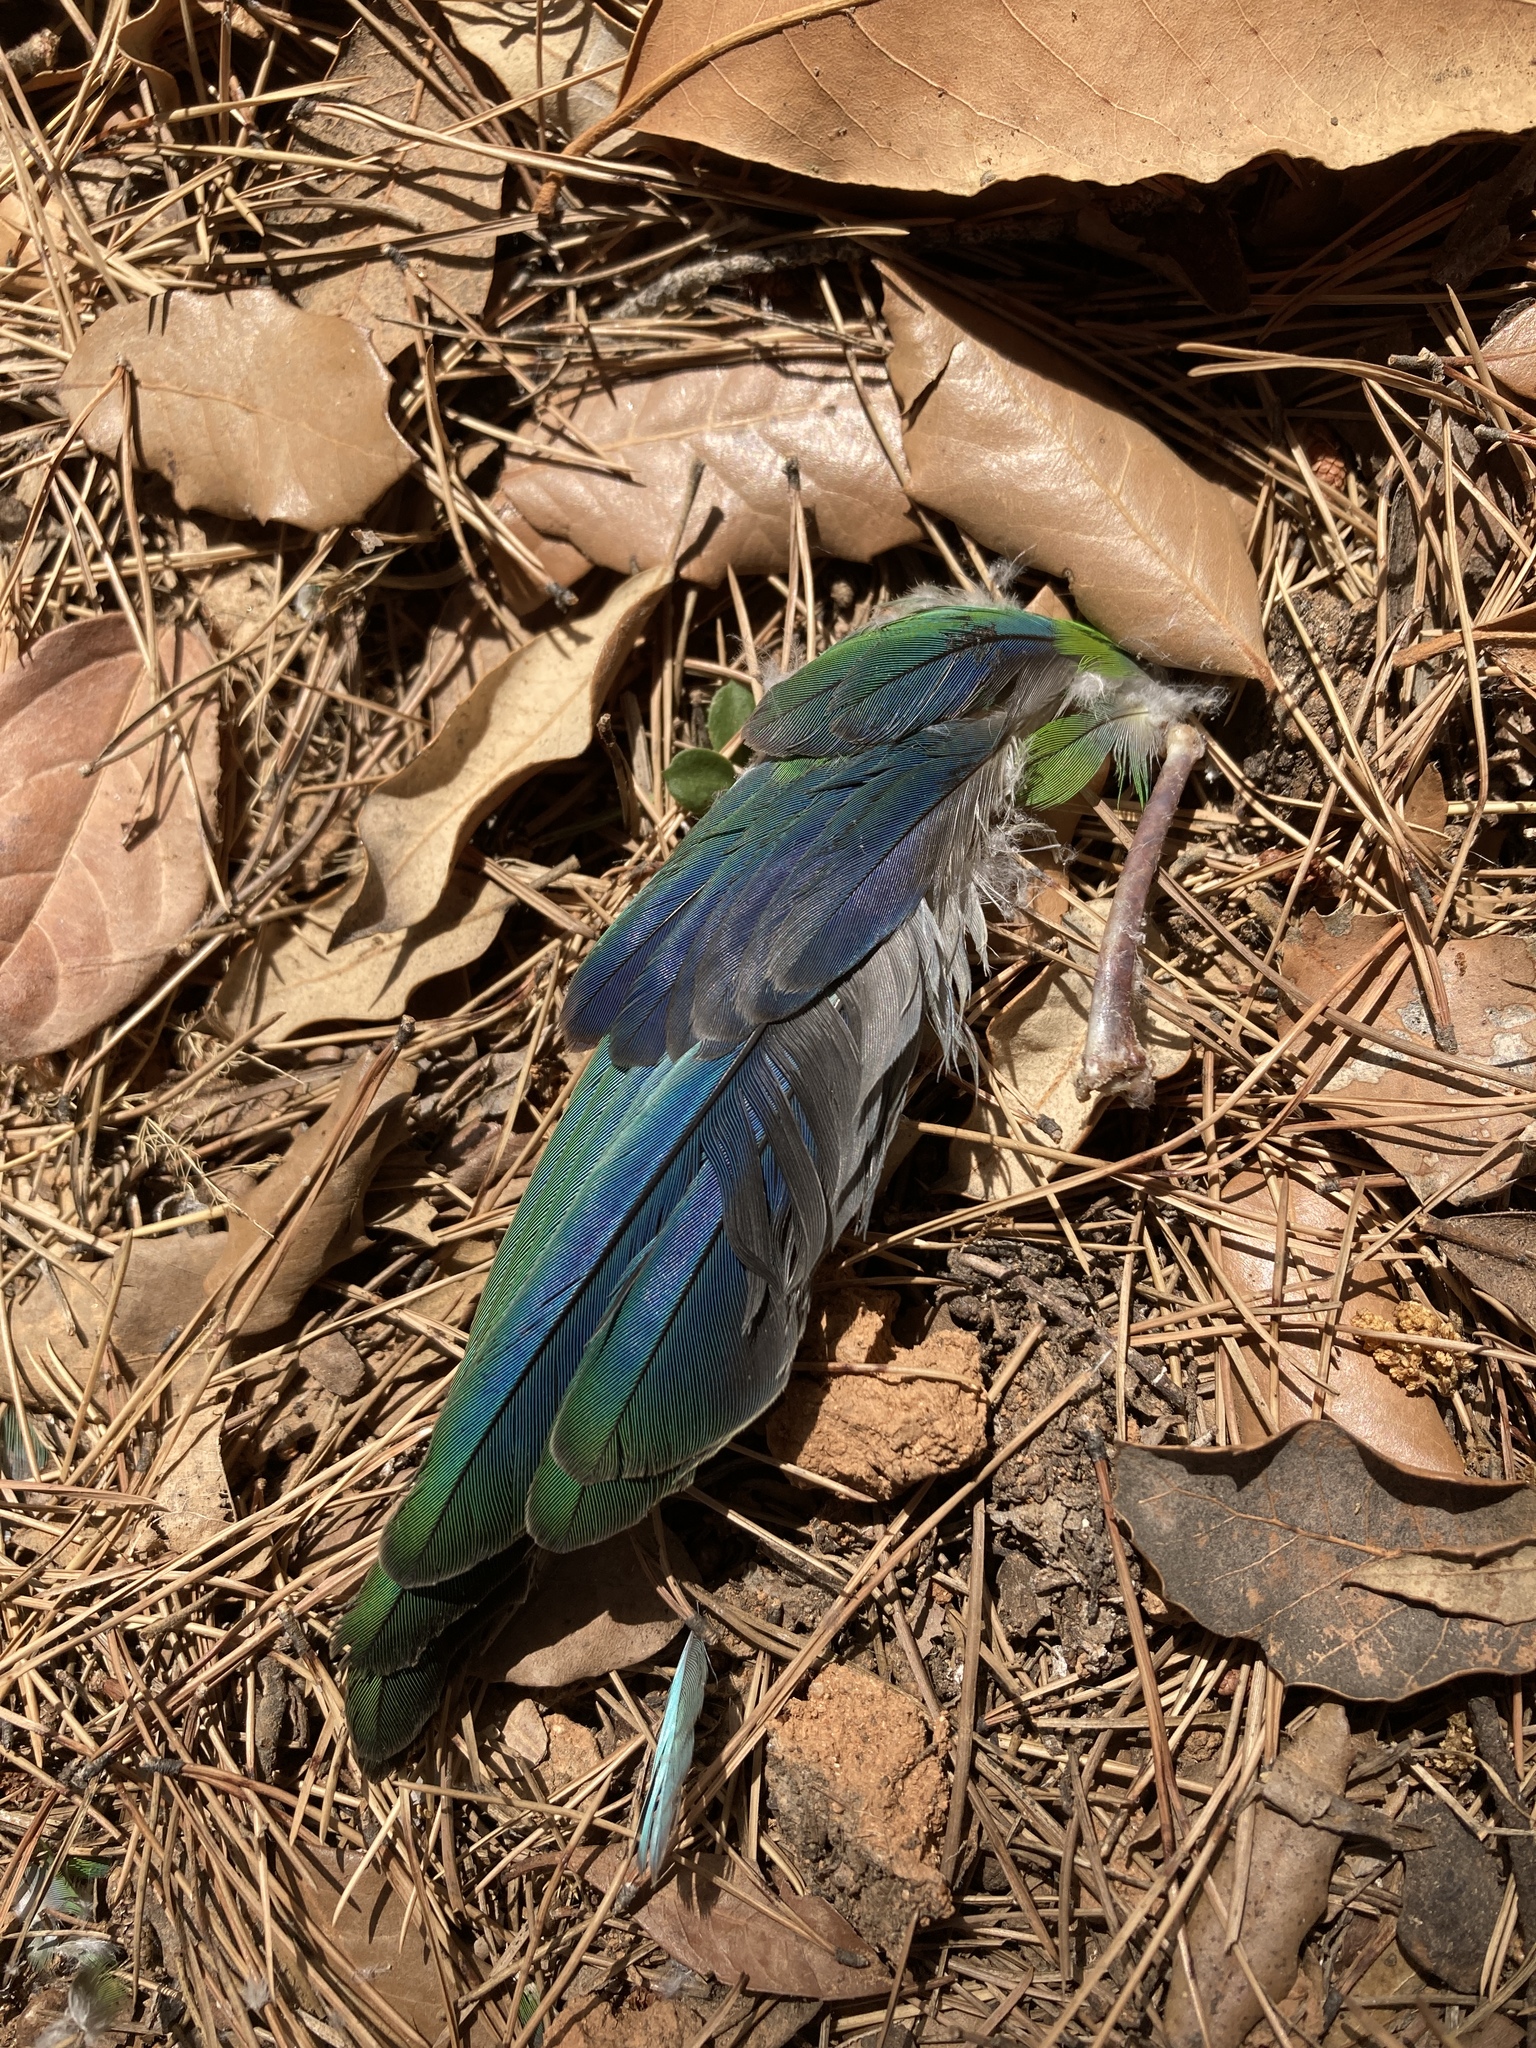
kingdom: Animalia
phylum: Chordata
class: Aves
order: Psittaciformes
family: Psittacidae
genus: Myiopsitta
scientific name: Myiopsitta monachus
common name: Monk parakeet
